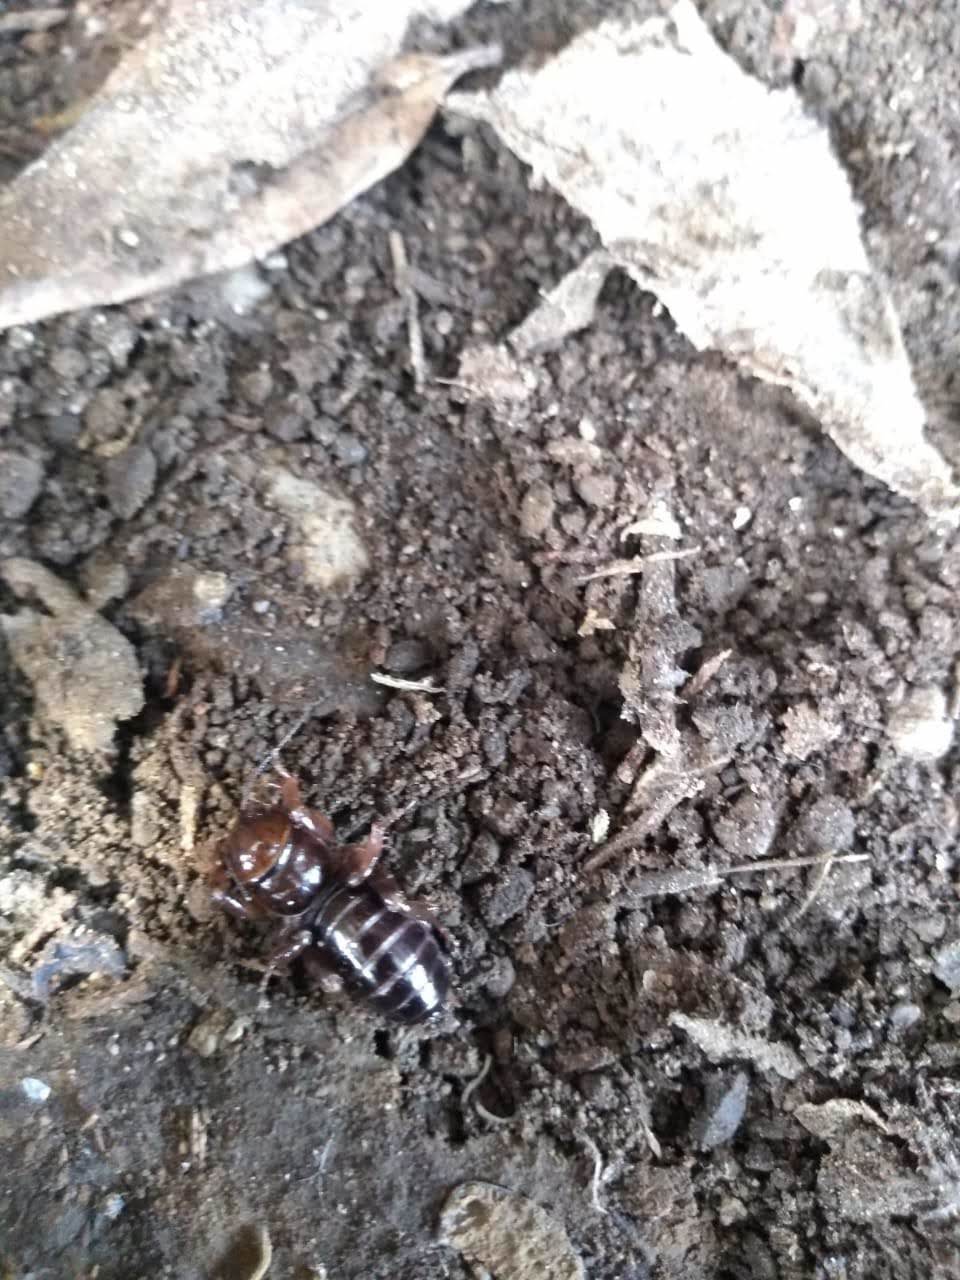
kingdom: Animalia
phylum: Arthropoda
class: Insecta
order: Orthoptera
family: Stenopelmatidae
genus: Stenopelmatus
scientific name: Stenopelmatus talpa
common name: Mole jerusalem cricket
